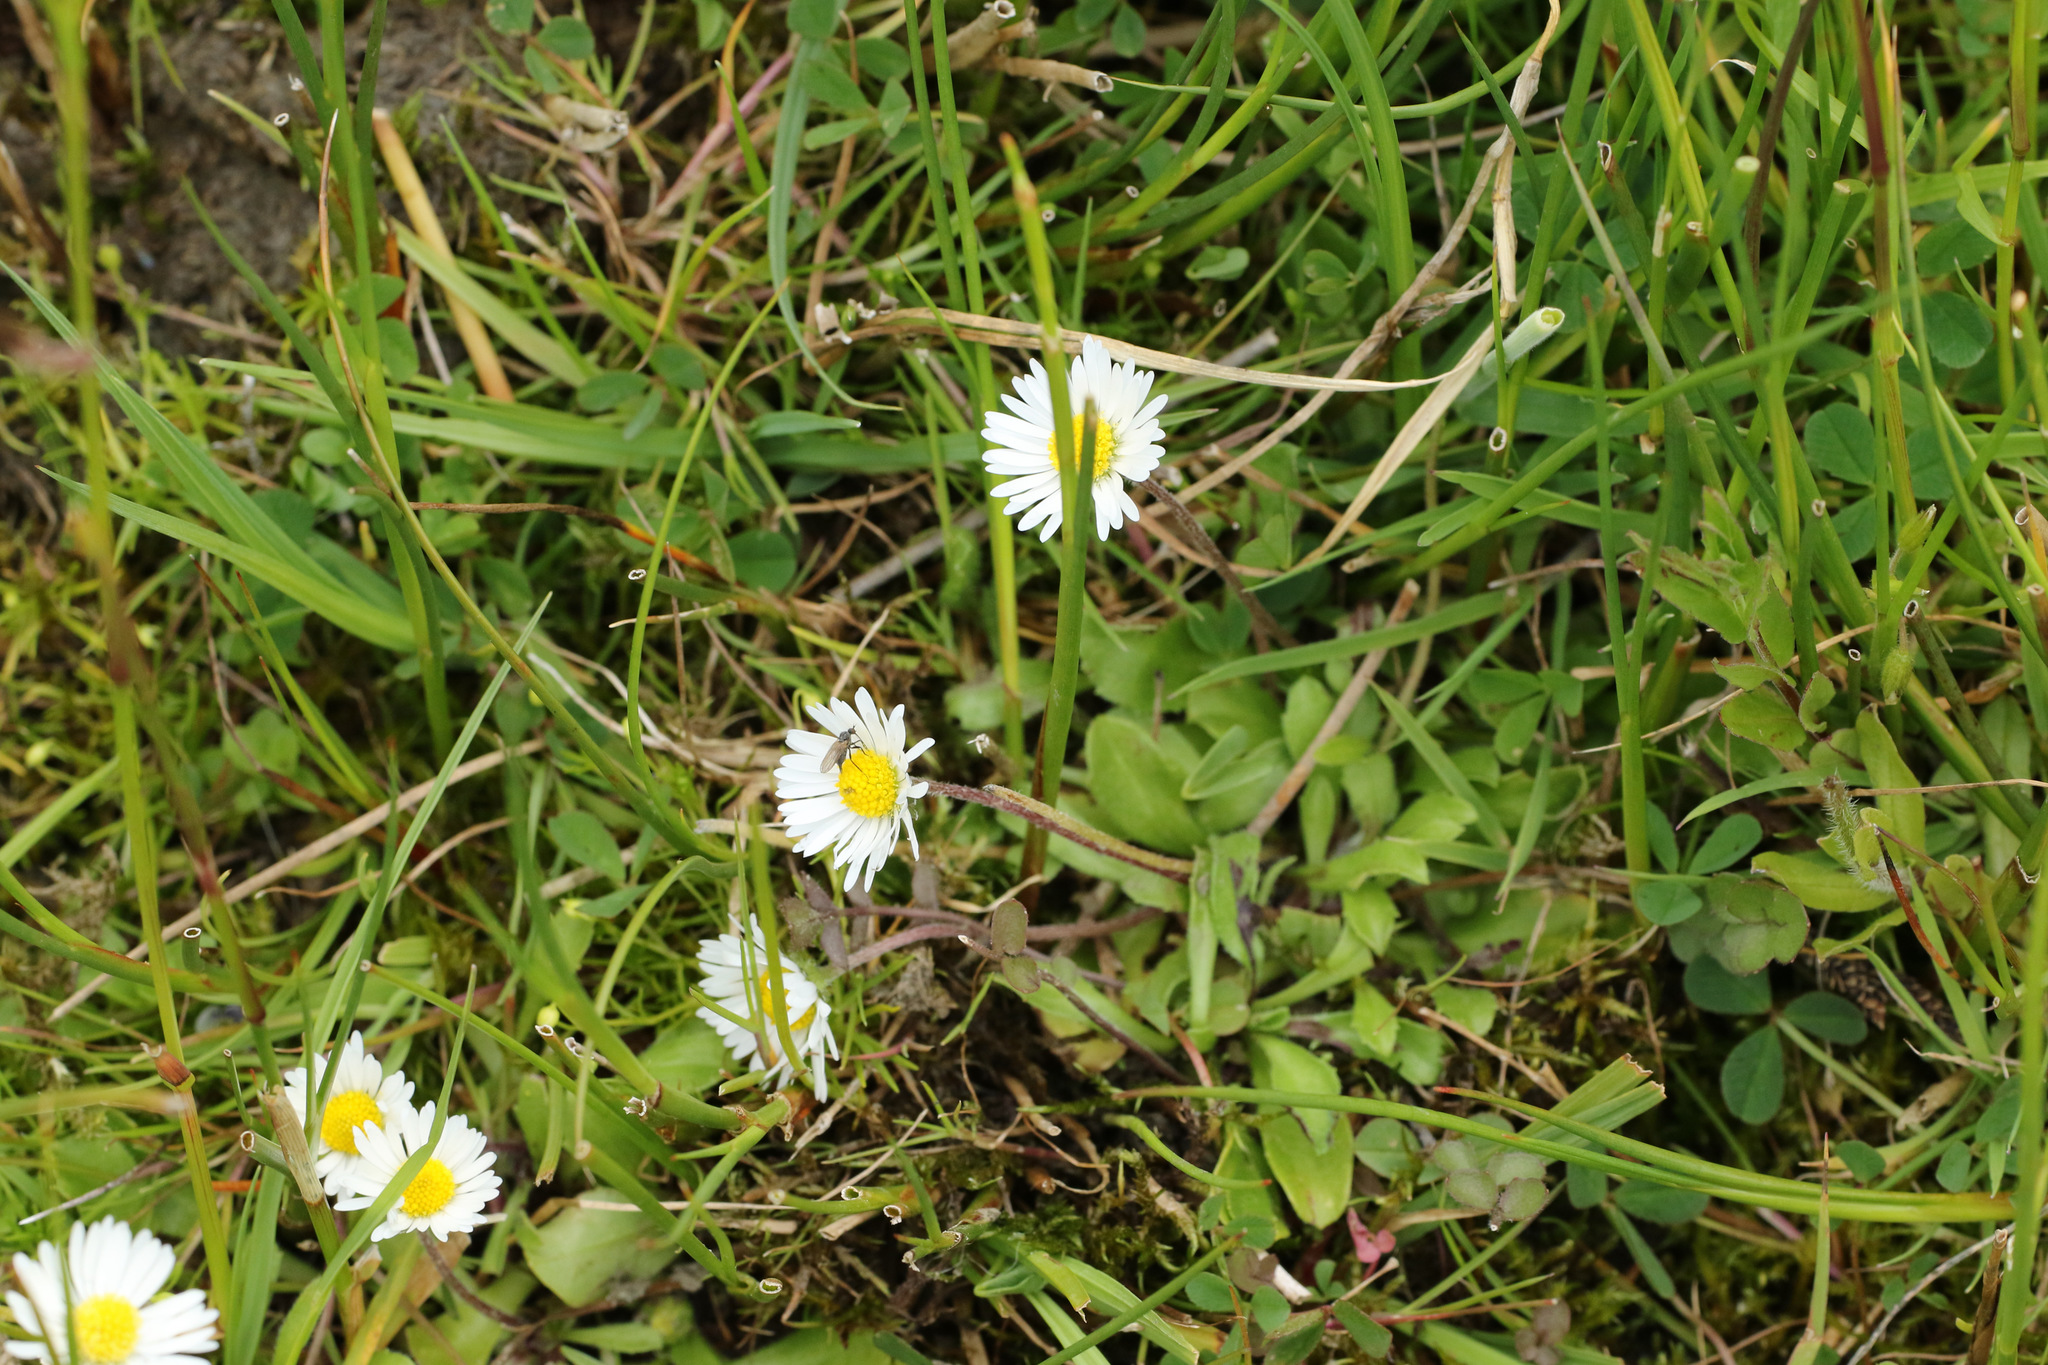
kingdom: Plantae
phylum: Tracheophyta
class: Magnoliopsida
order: Asterales
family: Asteraceae
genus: Bellis
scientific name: Bellis perennis
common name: Lawndaisy
